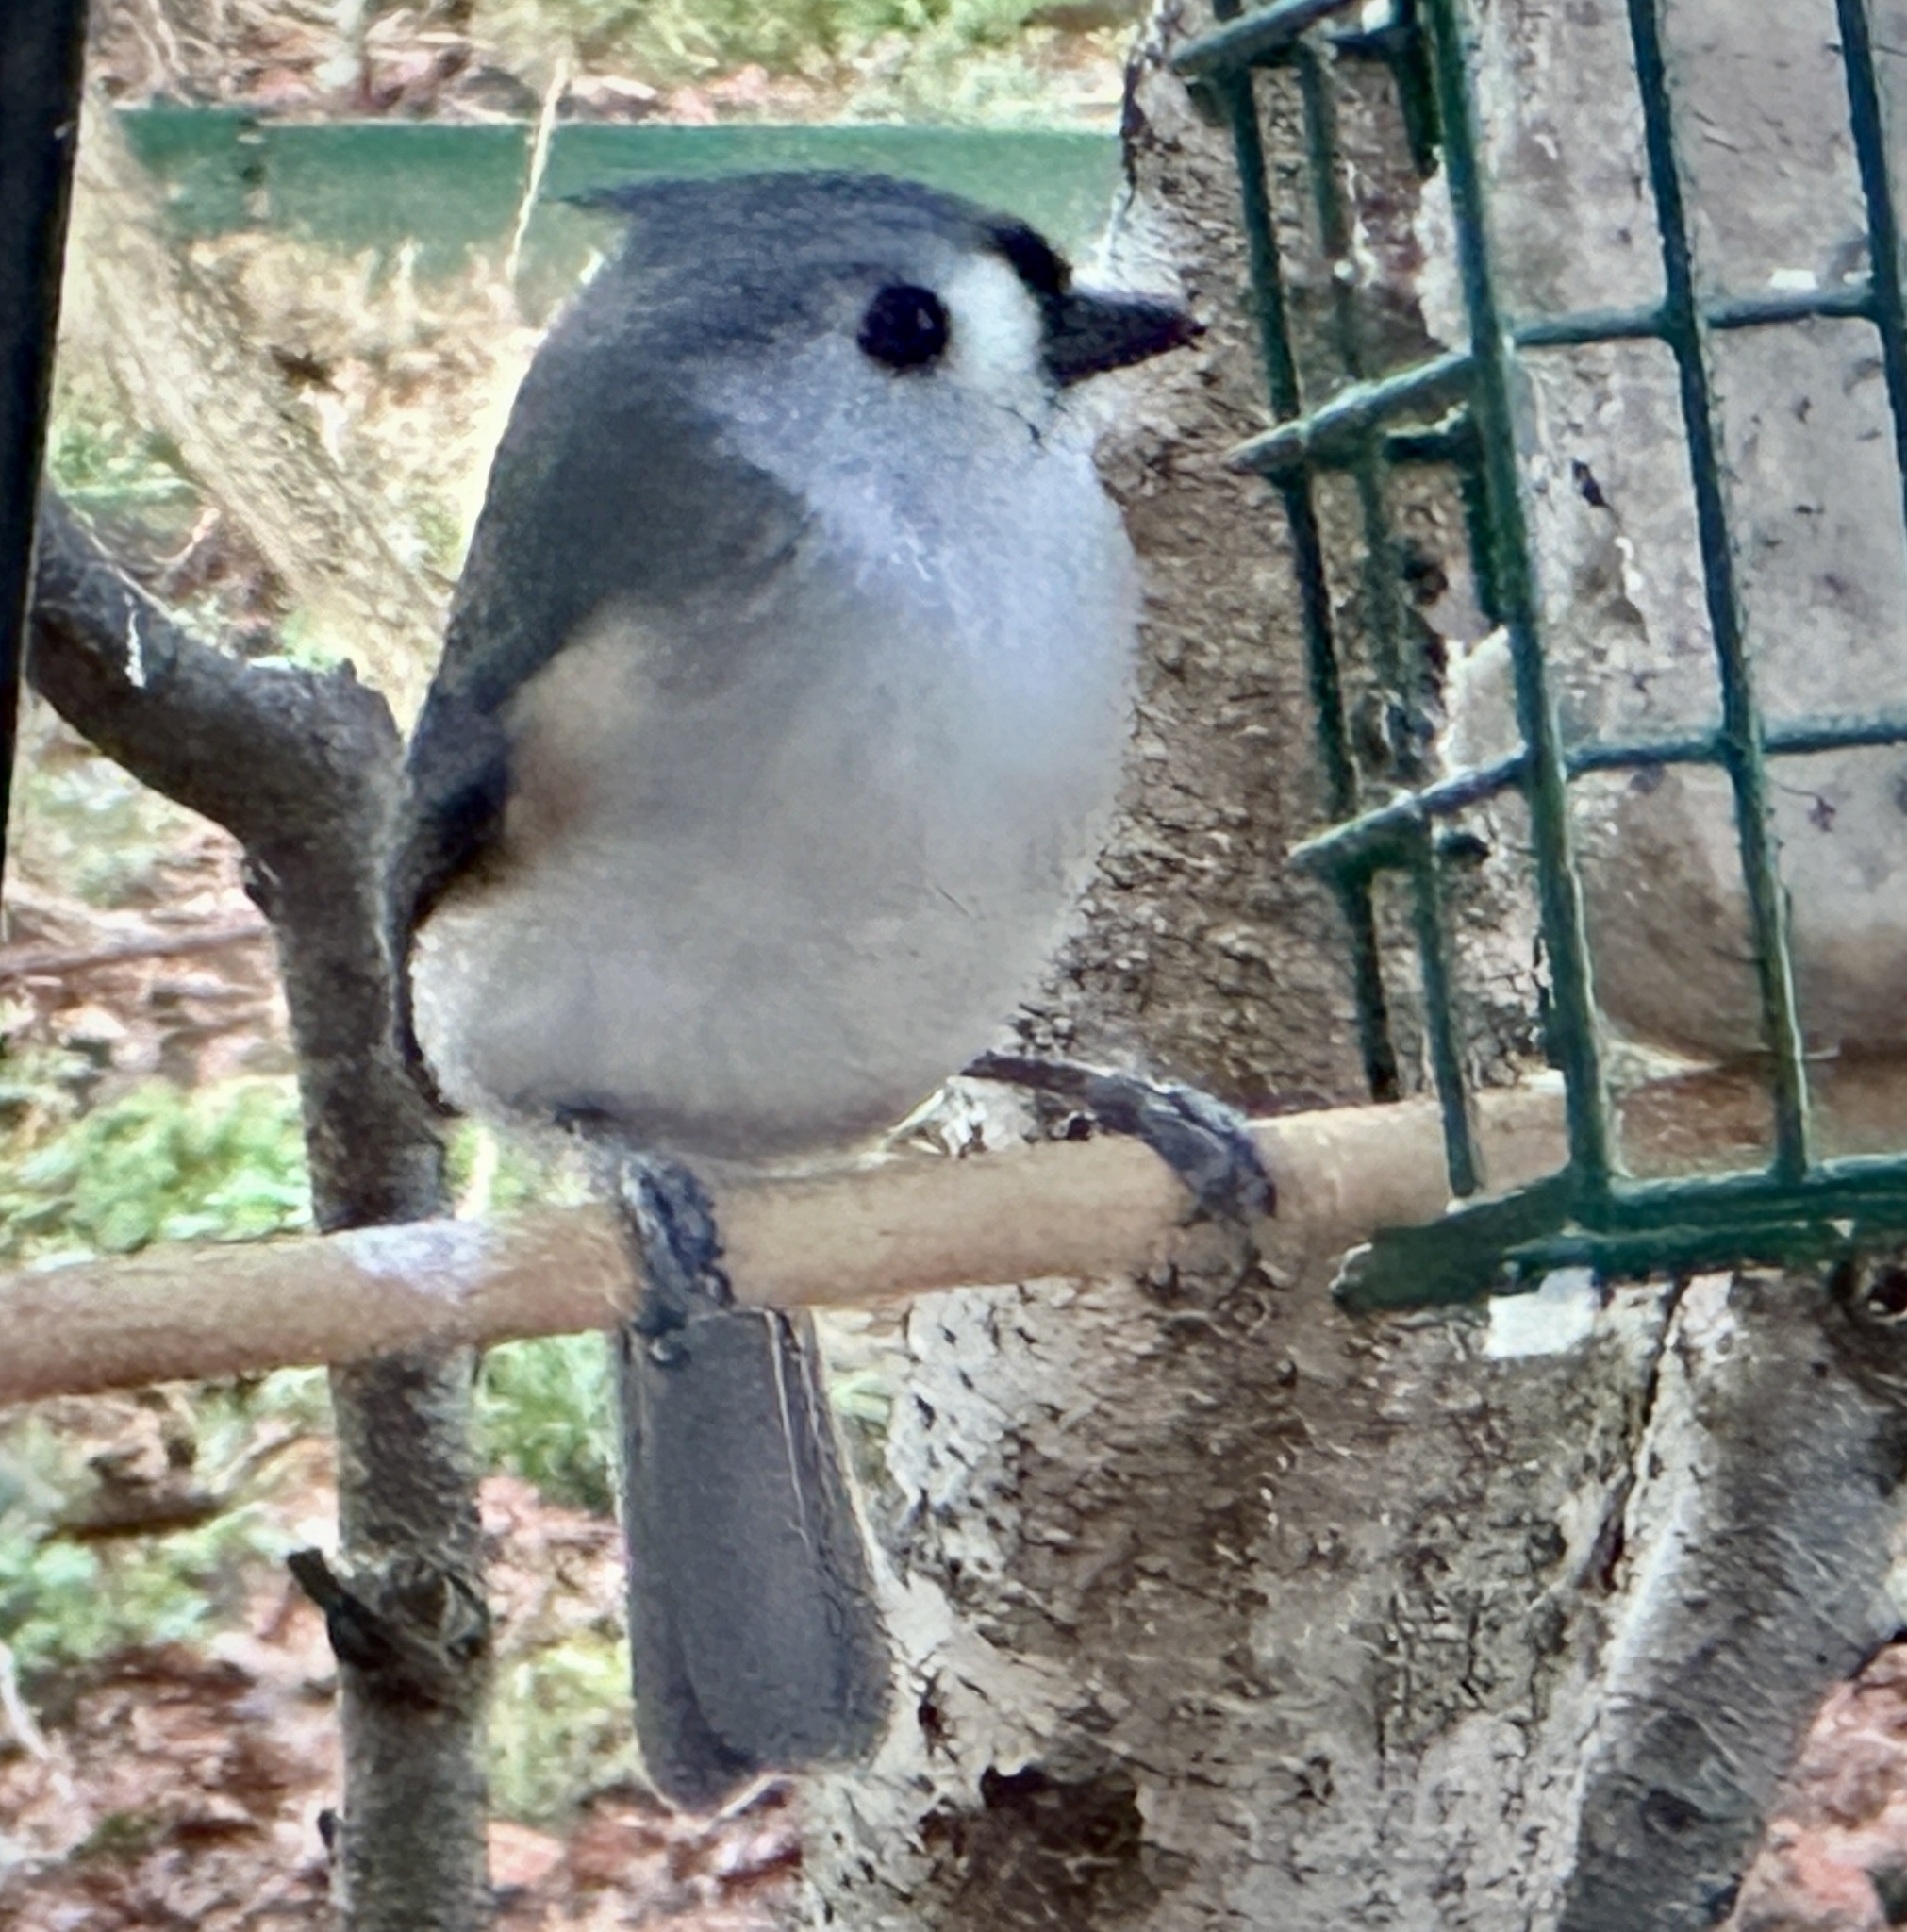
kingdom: Animalia
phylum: Chordata
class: Aves
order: Passeriformes
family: Paridae
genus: Baeolophus
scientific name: Baeolophus bicolor
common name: Tufted titmouse
